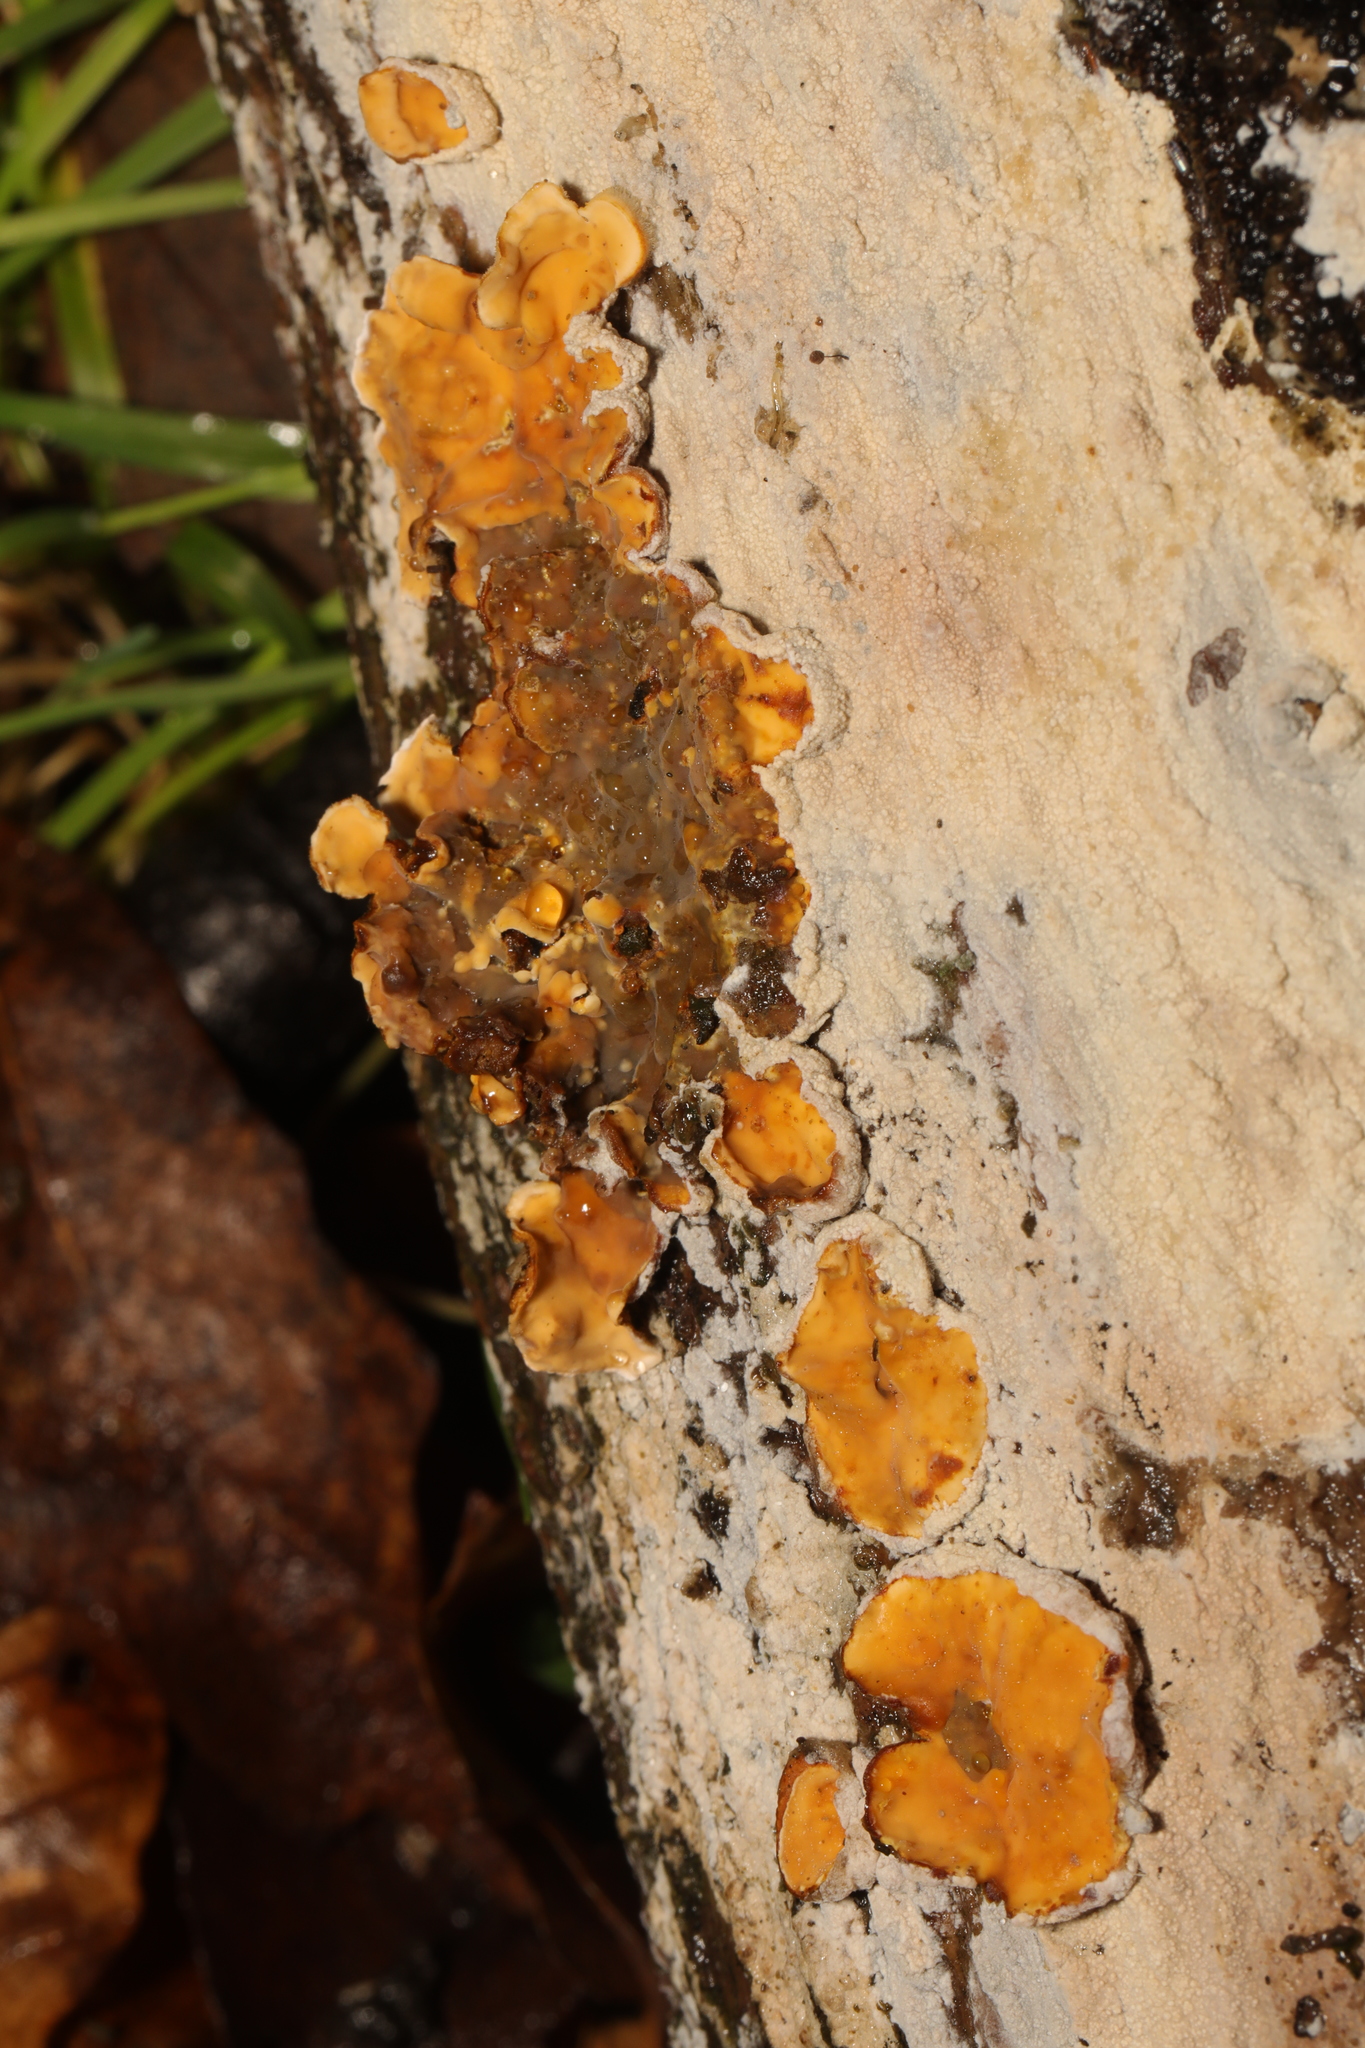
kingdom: Fungi
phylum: Basidiomycota
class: Agaricomycetes
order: Russulales
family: Stereaceae
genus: Stereum
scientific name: Stereum hirsutum
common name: Hairy curtain crust
